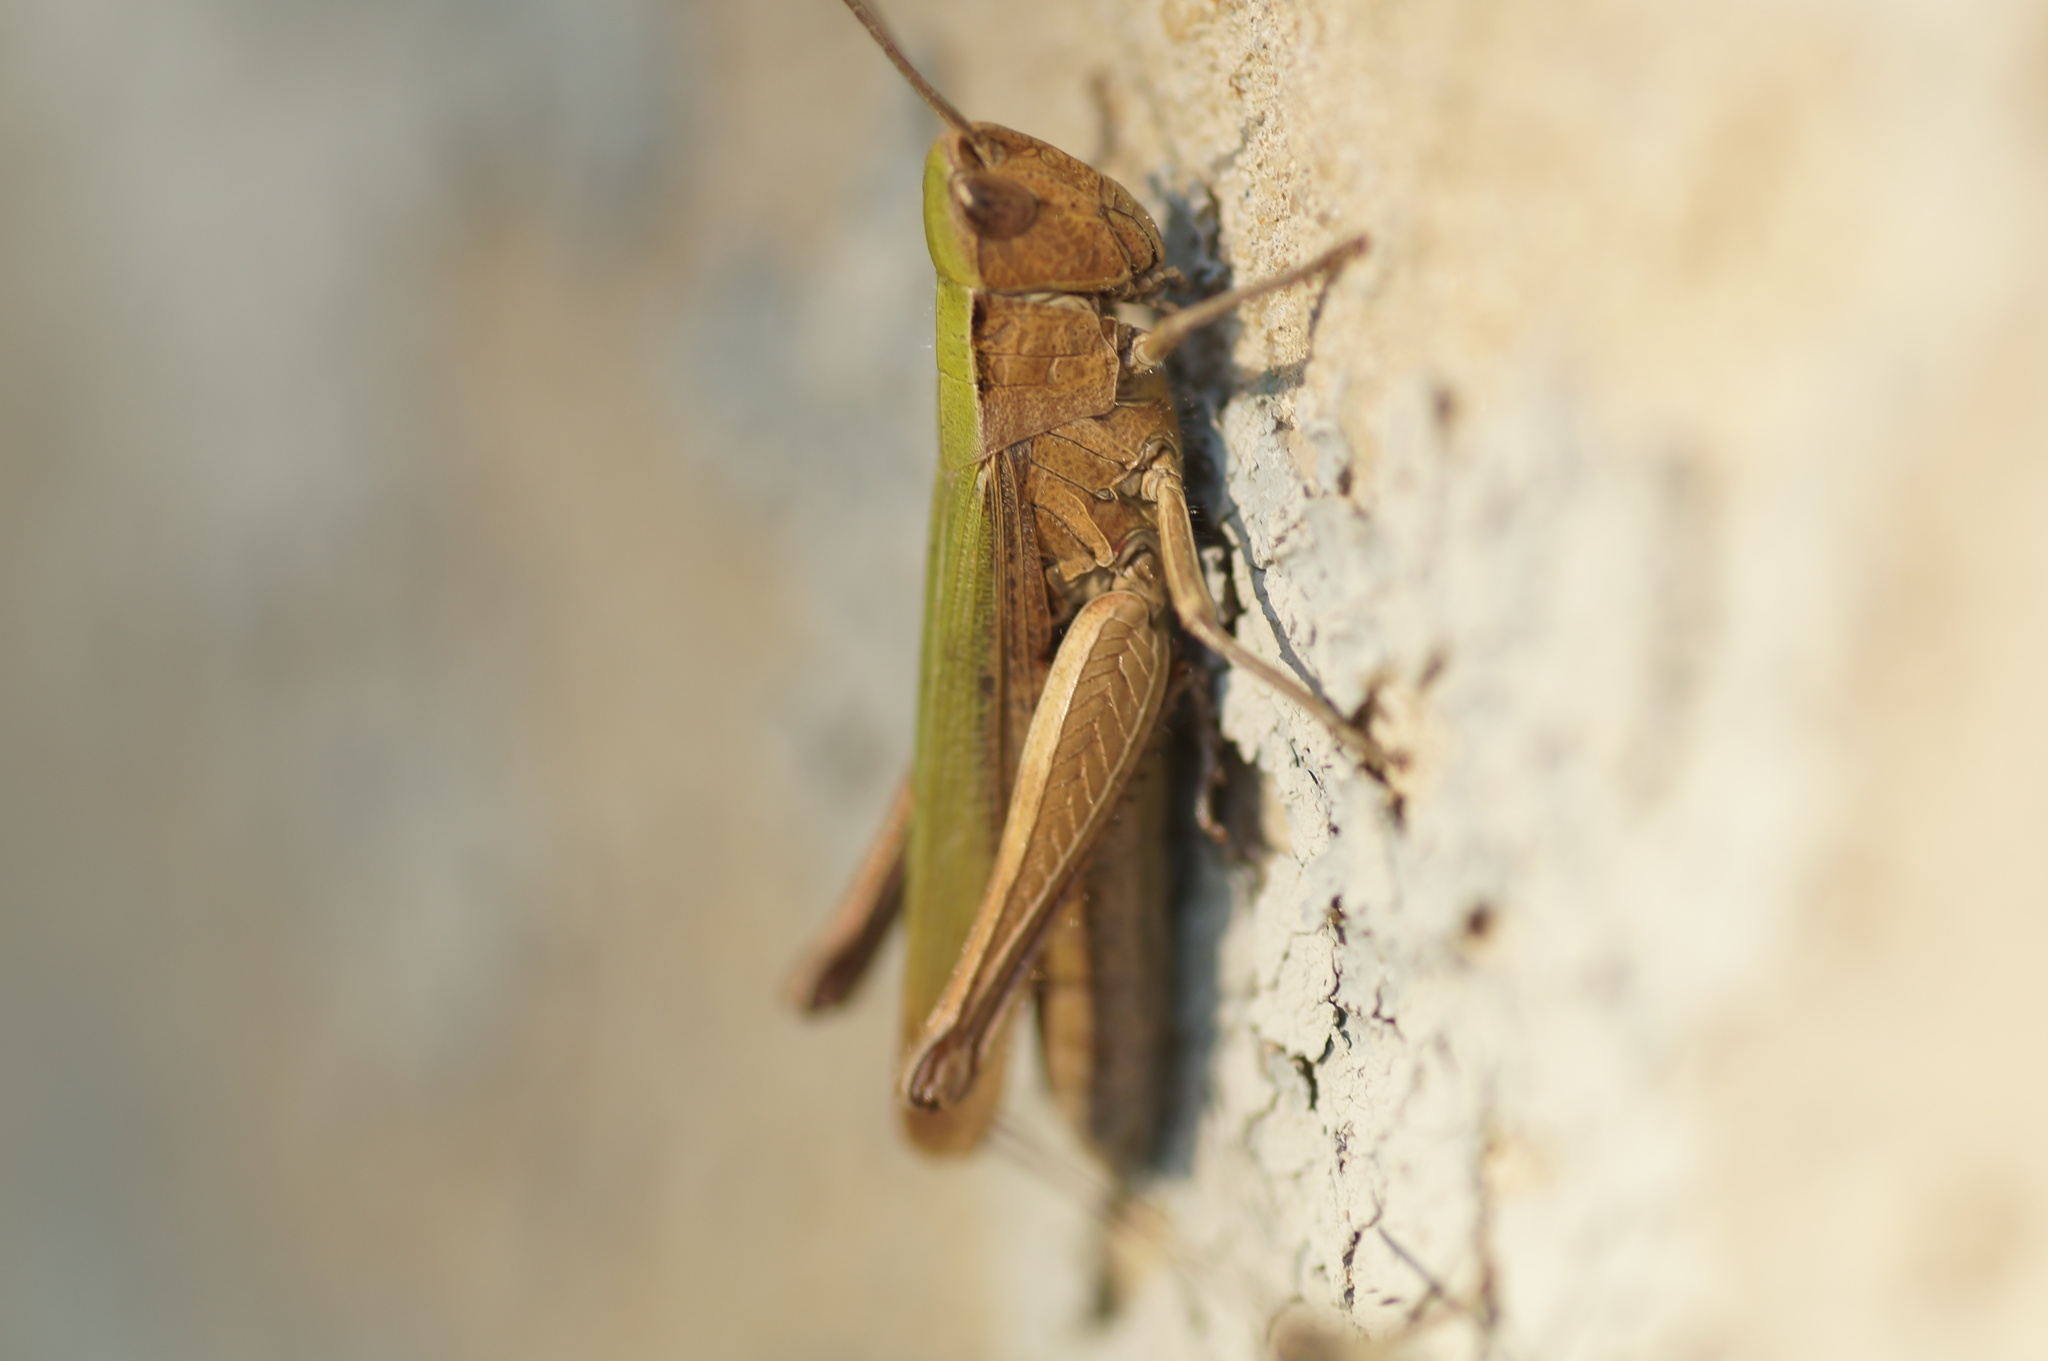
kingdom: Animalia
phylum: Arthropoda
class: Insecta
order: Orthoptera
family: Acrididae
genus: Chorthippus
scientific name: Chorthippus dorsatus
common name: Steppe grasshopper
